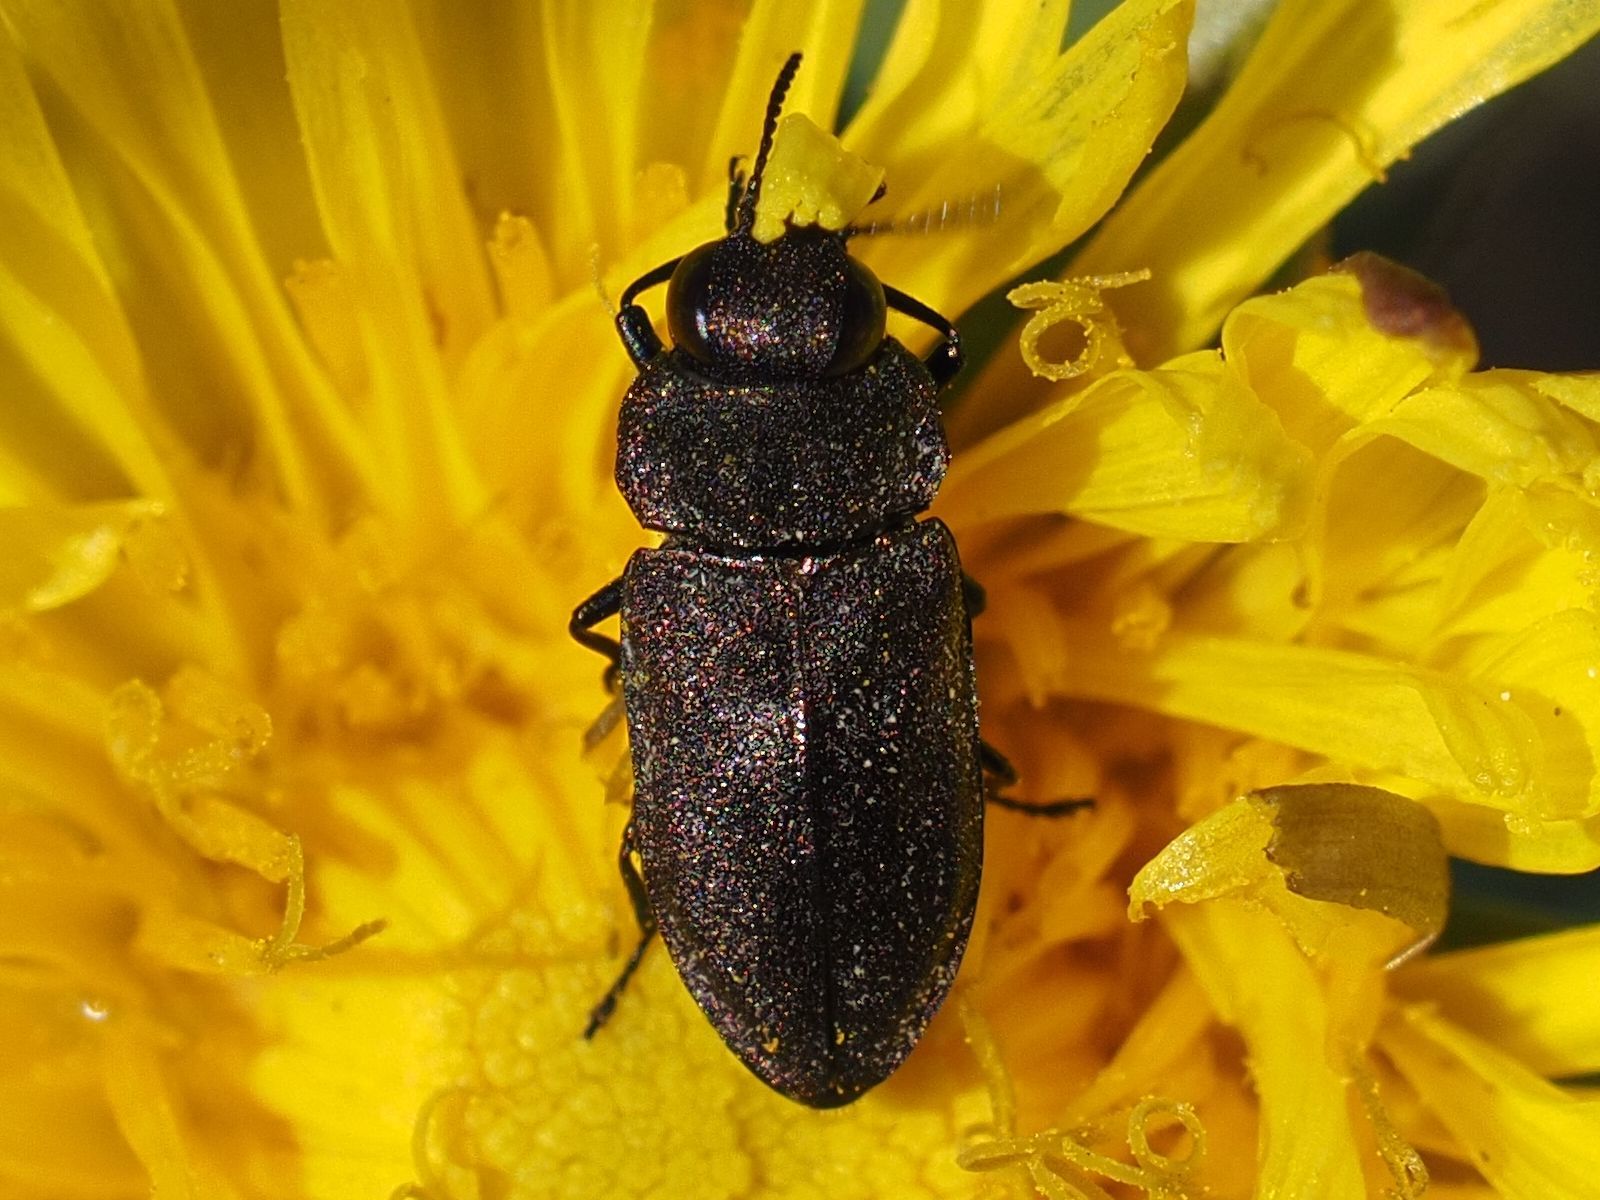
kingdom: Animalia
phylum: Arthropoda
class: Insecta
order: Coleoptera
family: Buprestidae
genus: Anthaxia
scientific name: Anthaxia helvetica
